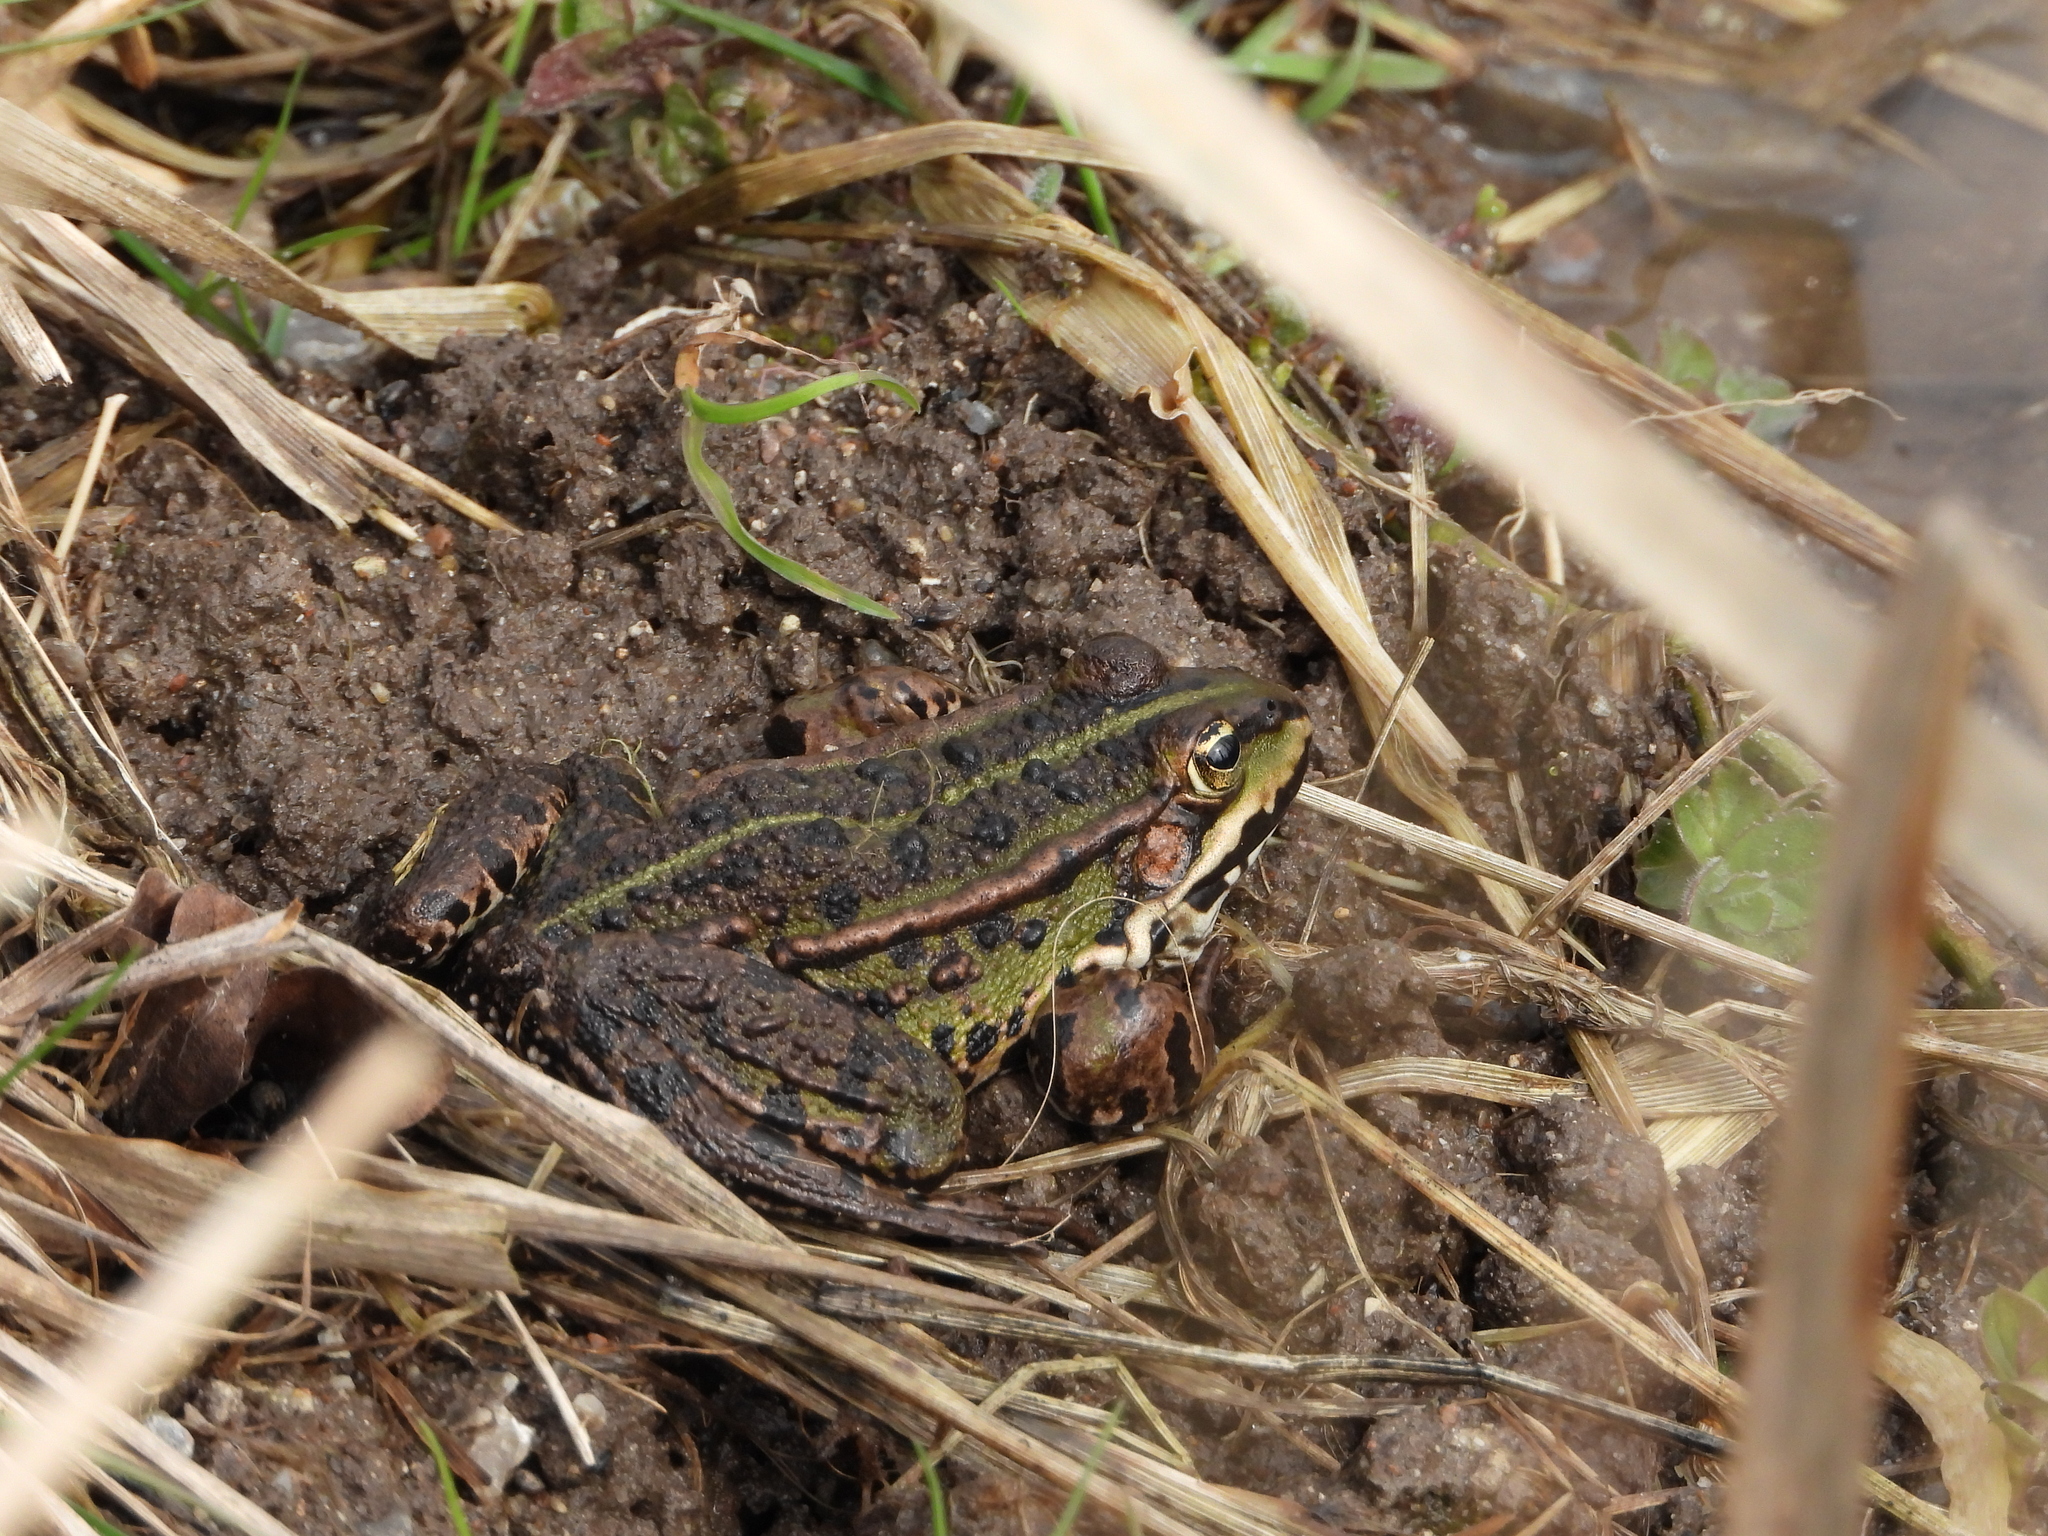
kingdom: Animalia
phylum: Chordata
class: Amphibia
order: Anura
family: Ranidae
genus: Pelophylax
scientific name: Pelophylax lessonae
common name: Pool frog
